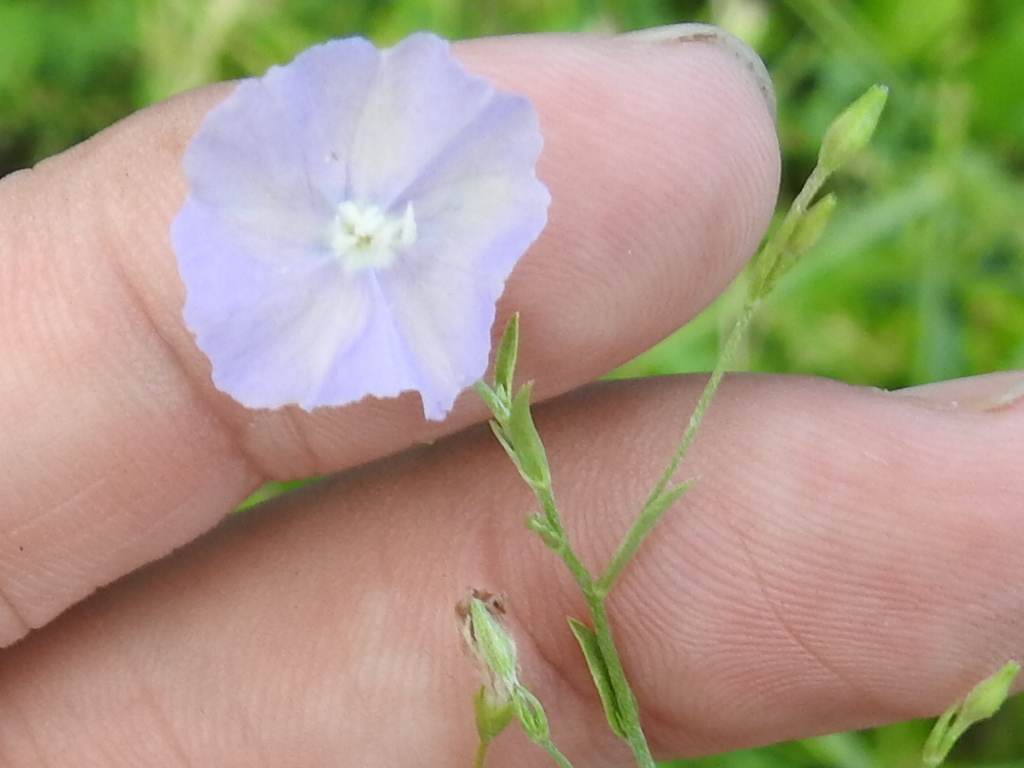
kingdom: Plantae
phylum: Tracheophyta
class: Magnoliopsida
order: Solanales
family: Convolvulaceae
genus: Evolvulus
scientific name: Evolvulus arizonicus
